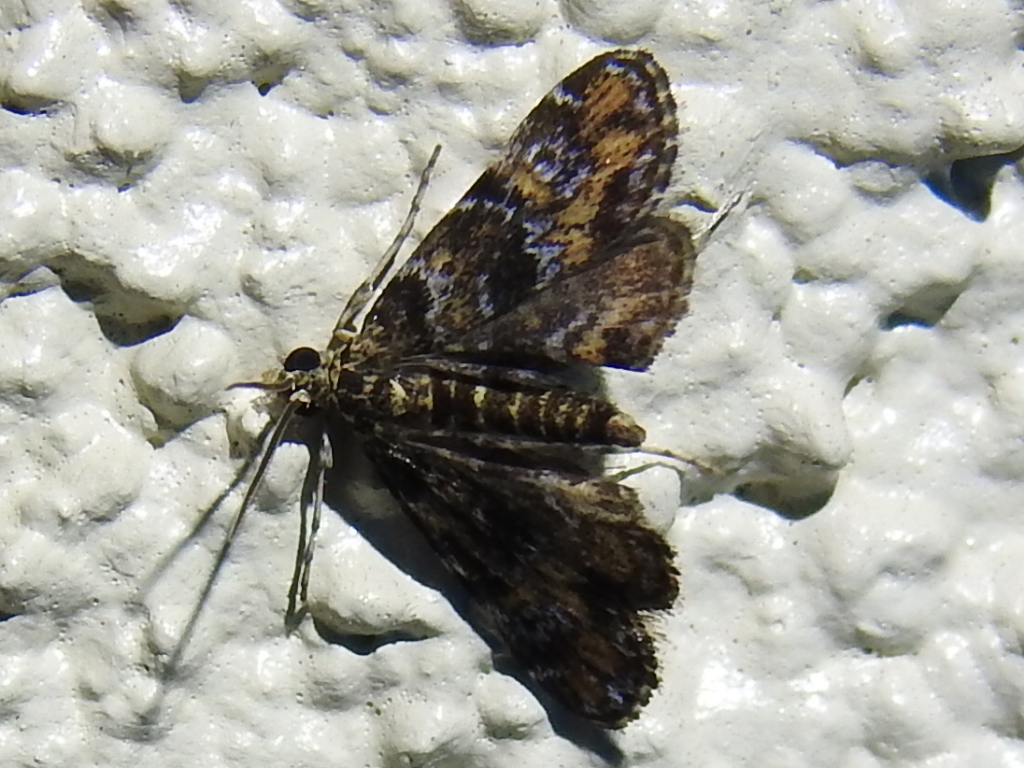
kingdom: Animalia
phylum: Arthropoda
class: Insecta
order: Lepidoptera
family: Crambidae
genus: Elophila
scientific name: Elophila obliteralis
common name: Waterlily leafcutter moth
